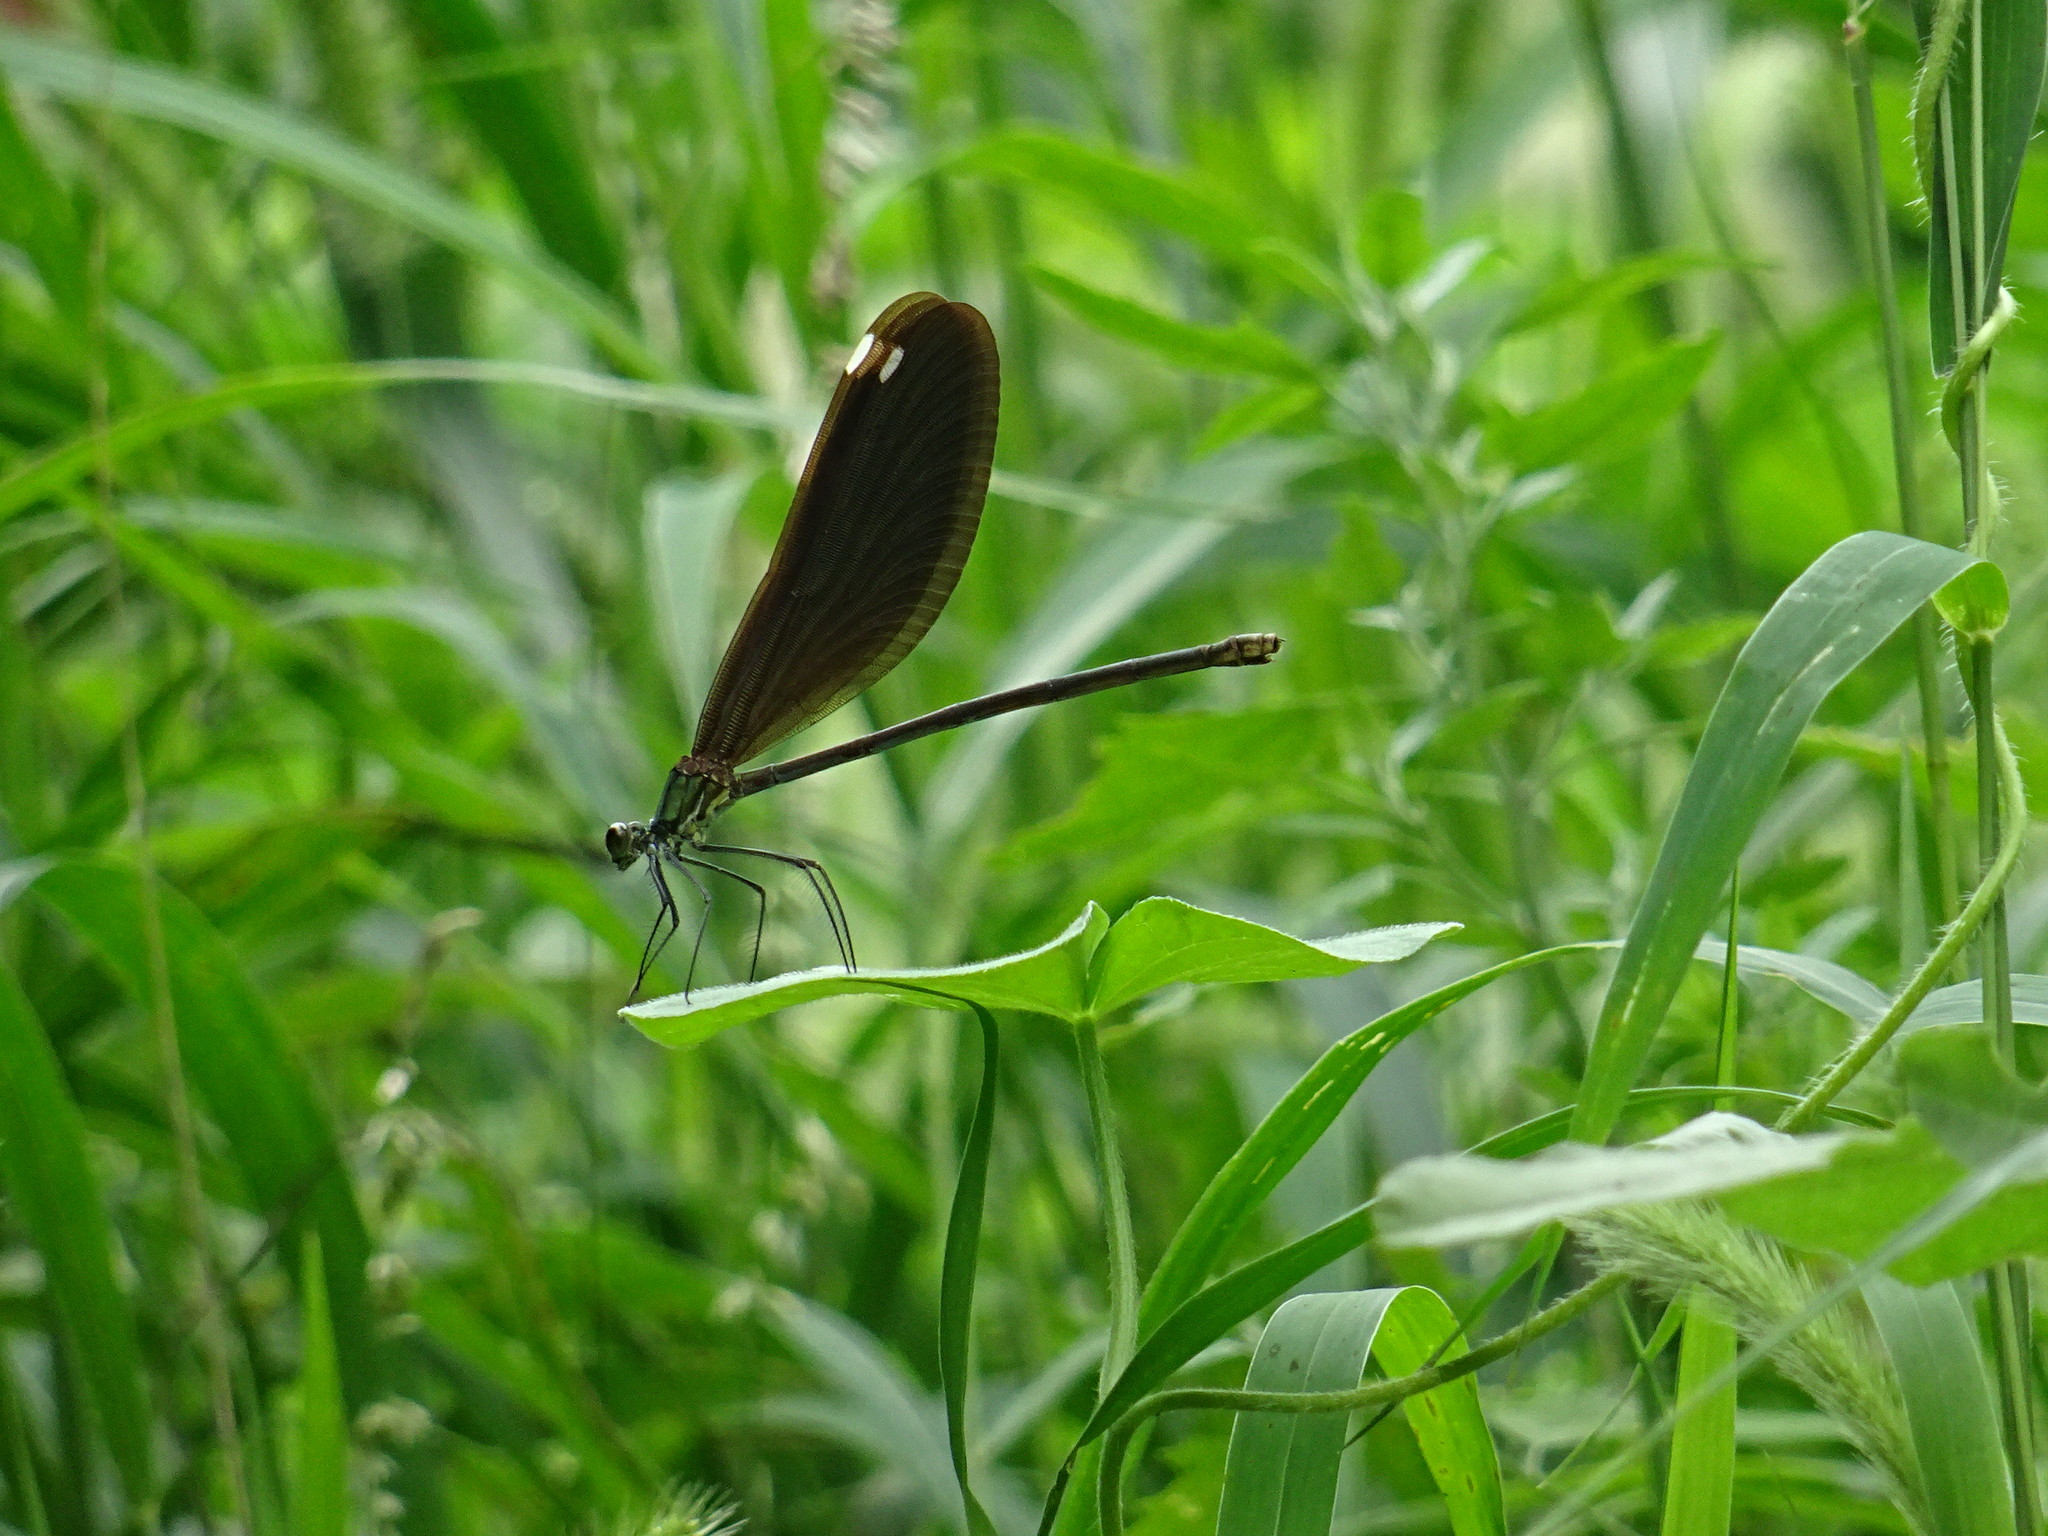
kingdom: Animalia
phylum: Arthropoda
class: Insecta
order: Odonata
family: Calopterygidae
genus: Matrona
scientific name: Matrona basilaris
